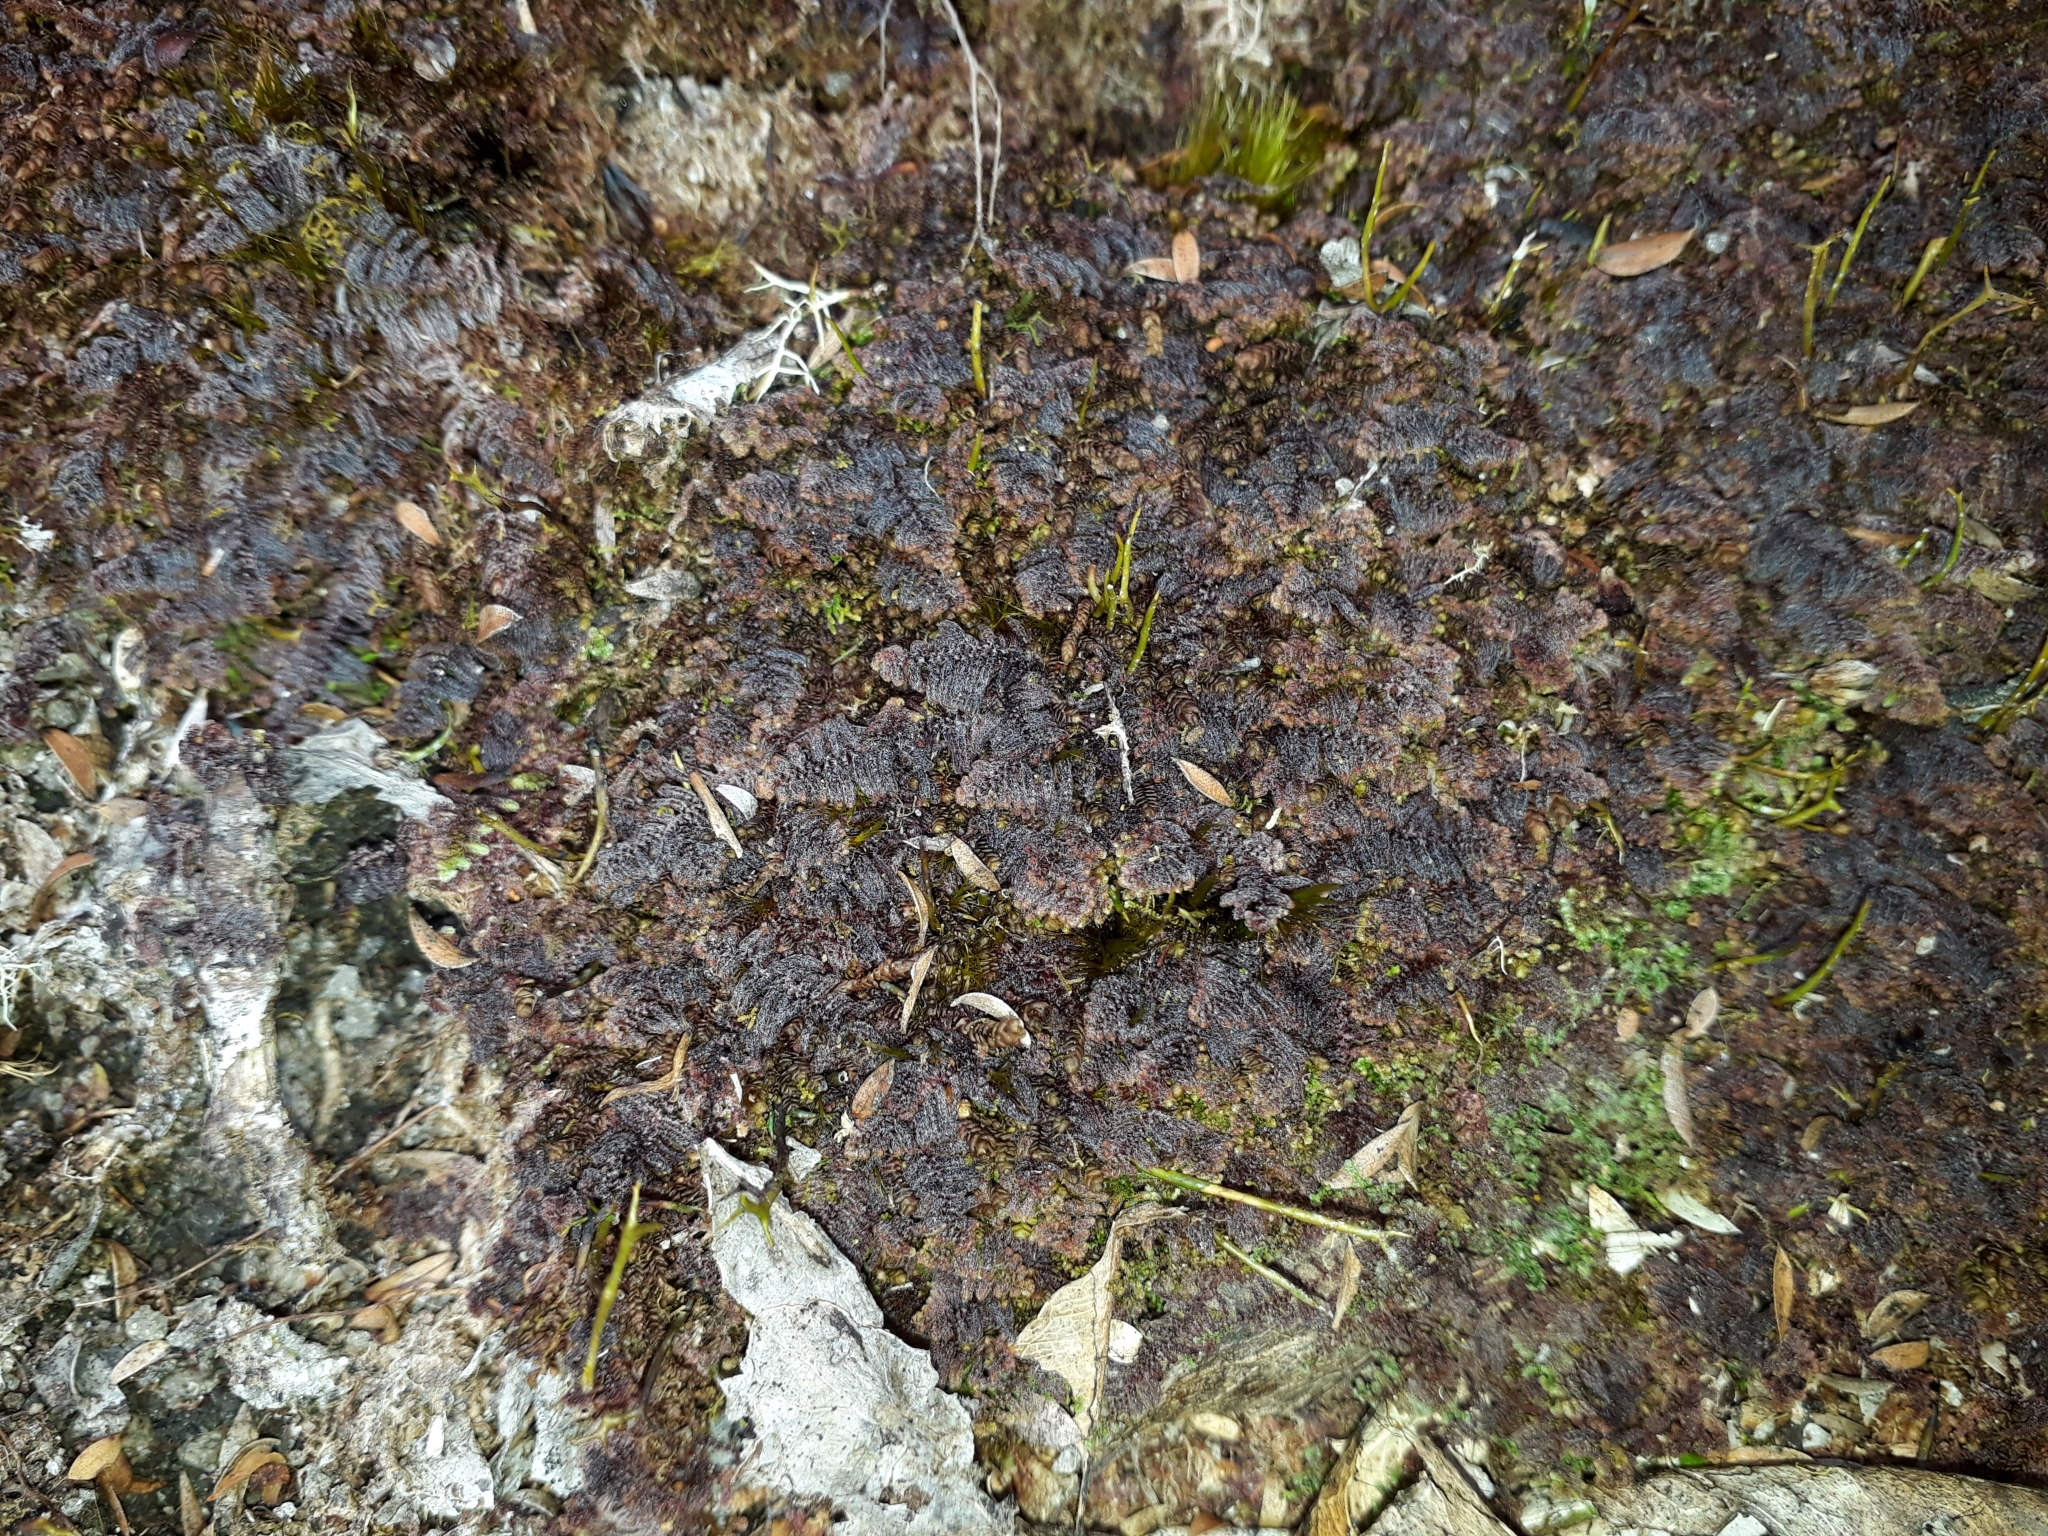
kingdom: Plantae
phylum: Marchantiophyta
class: Jungermanniopsida
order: Ptilidiales
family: Herzogianthaceae
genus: Herzogianthus
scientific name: Herzogianthus vaginatus
